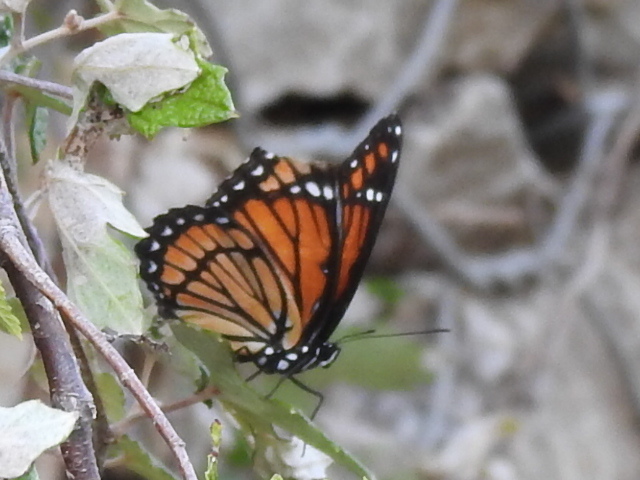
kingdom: Animalia
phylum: Arthropoda
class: Insecta
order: Lepidoptera
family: Nymphalidae
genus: Limenitis
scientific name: Limenitis archippus
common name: Viceroy
